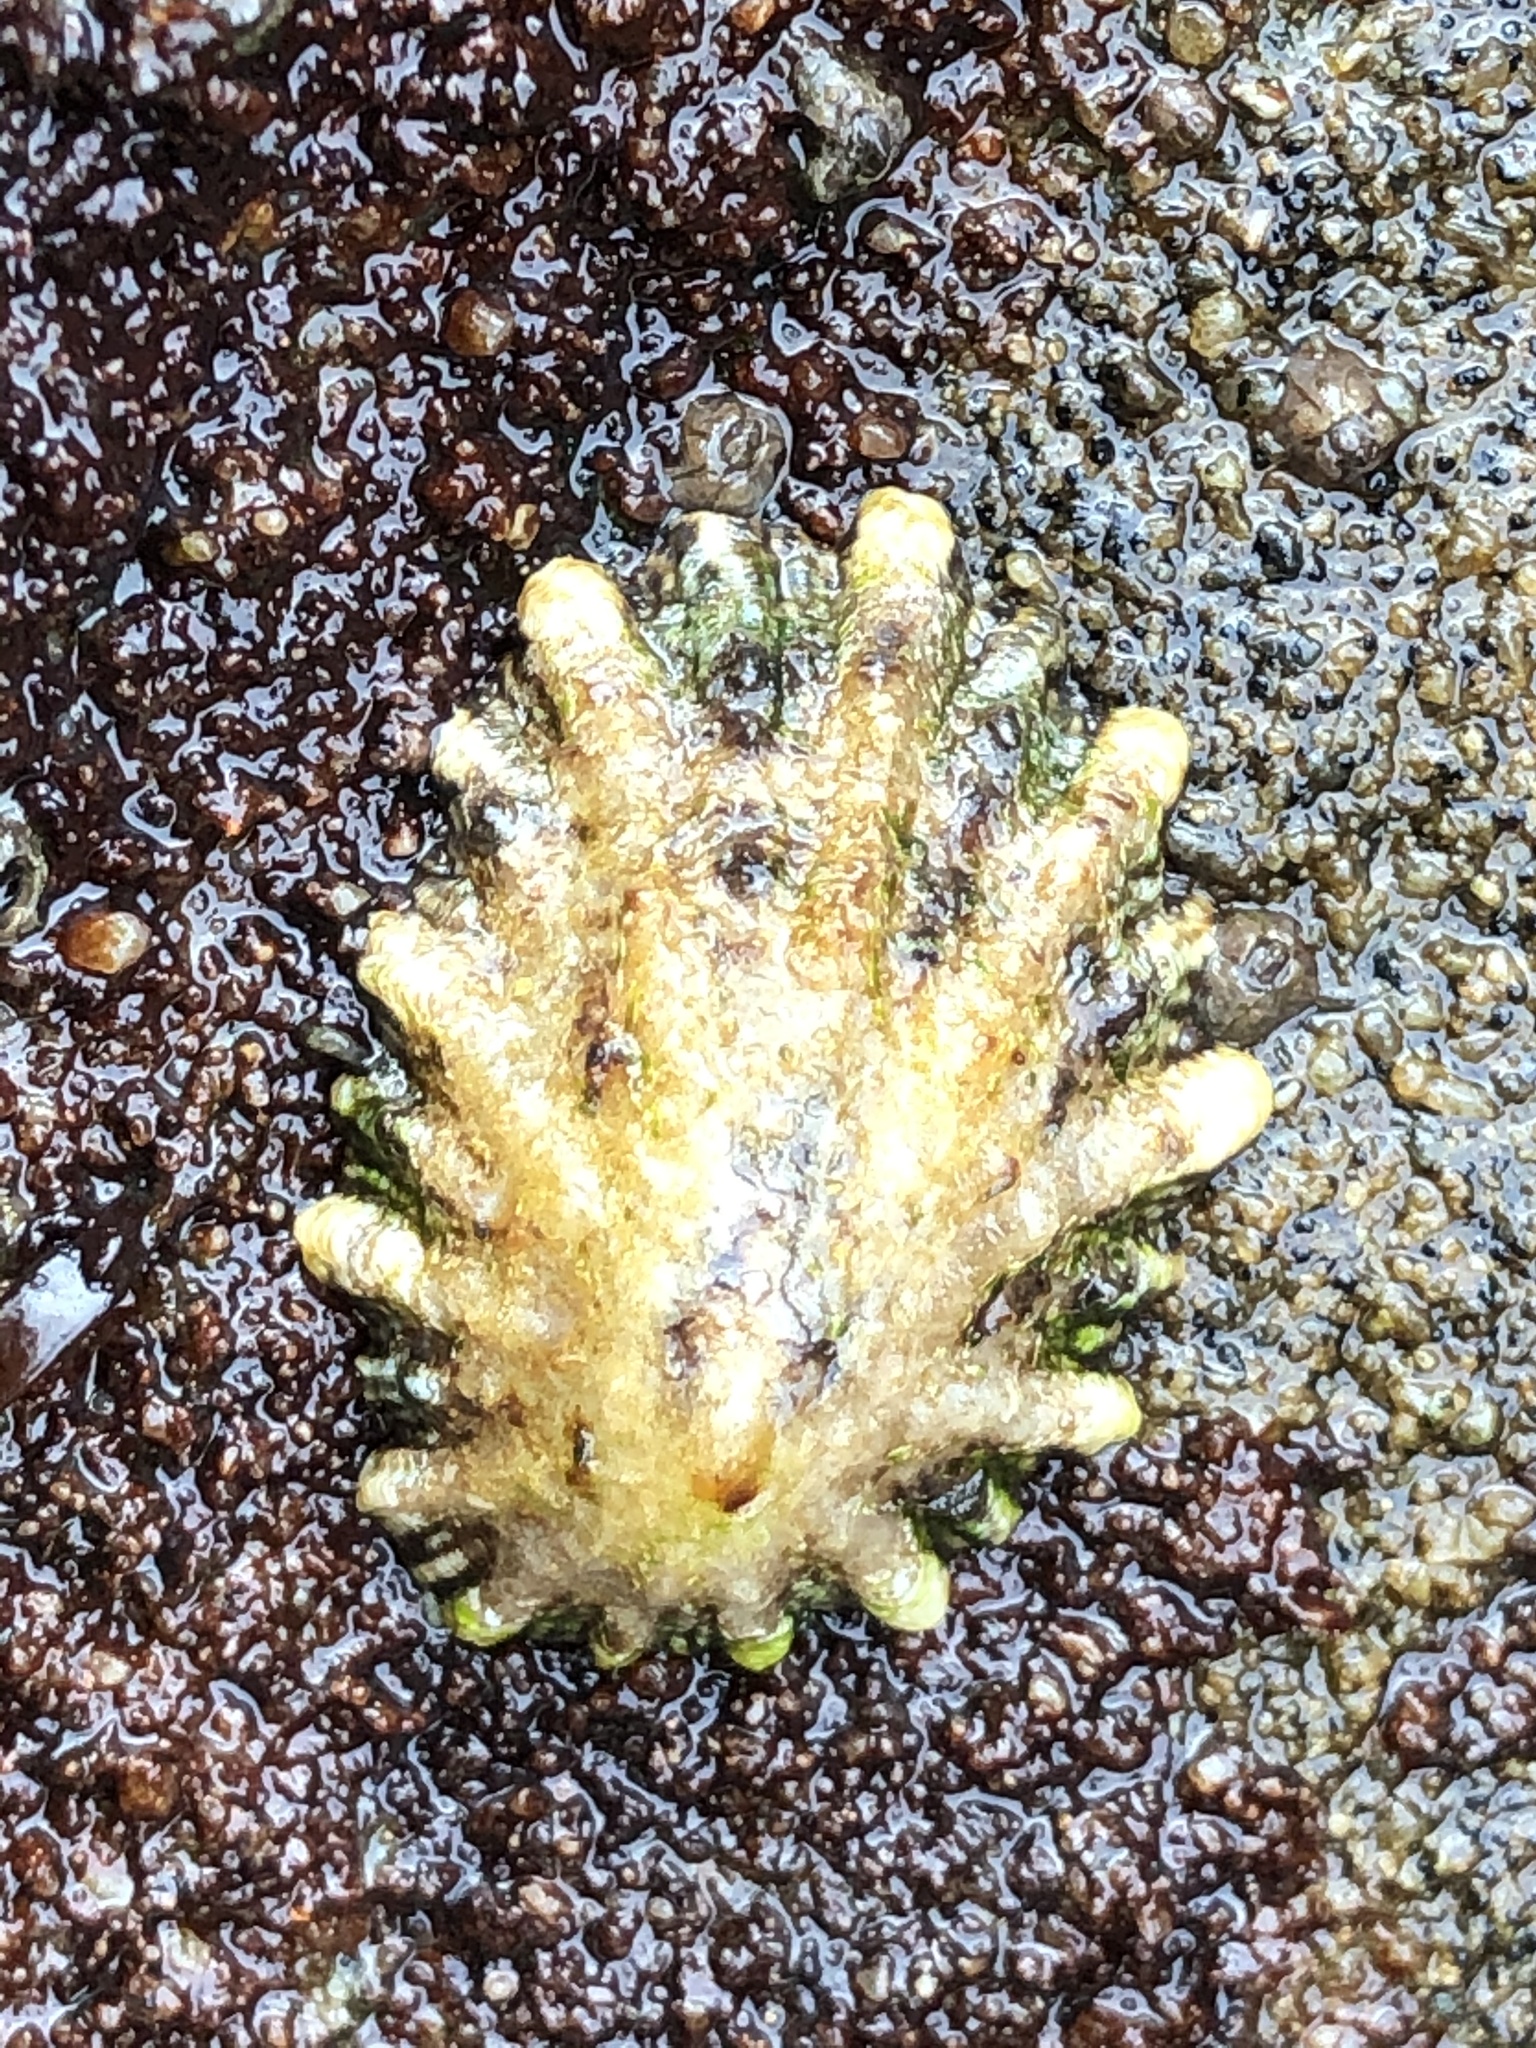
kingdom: Animalia
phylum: Mollusca
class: Gastropoda
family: Lottiidae
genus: Lottia
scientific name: Lottia scabra
